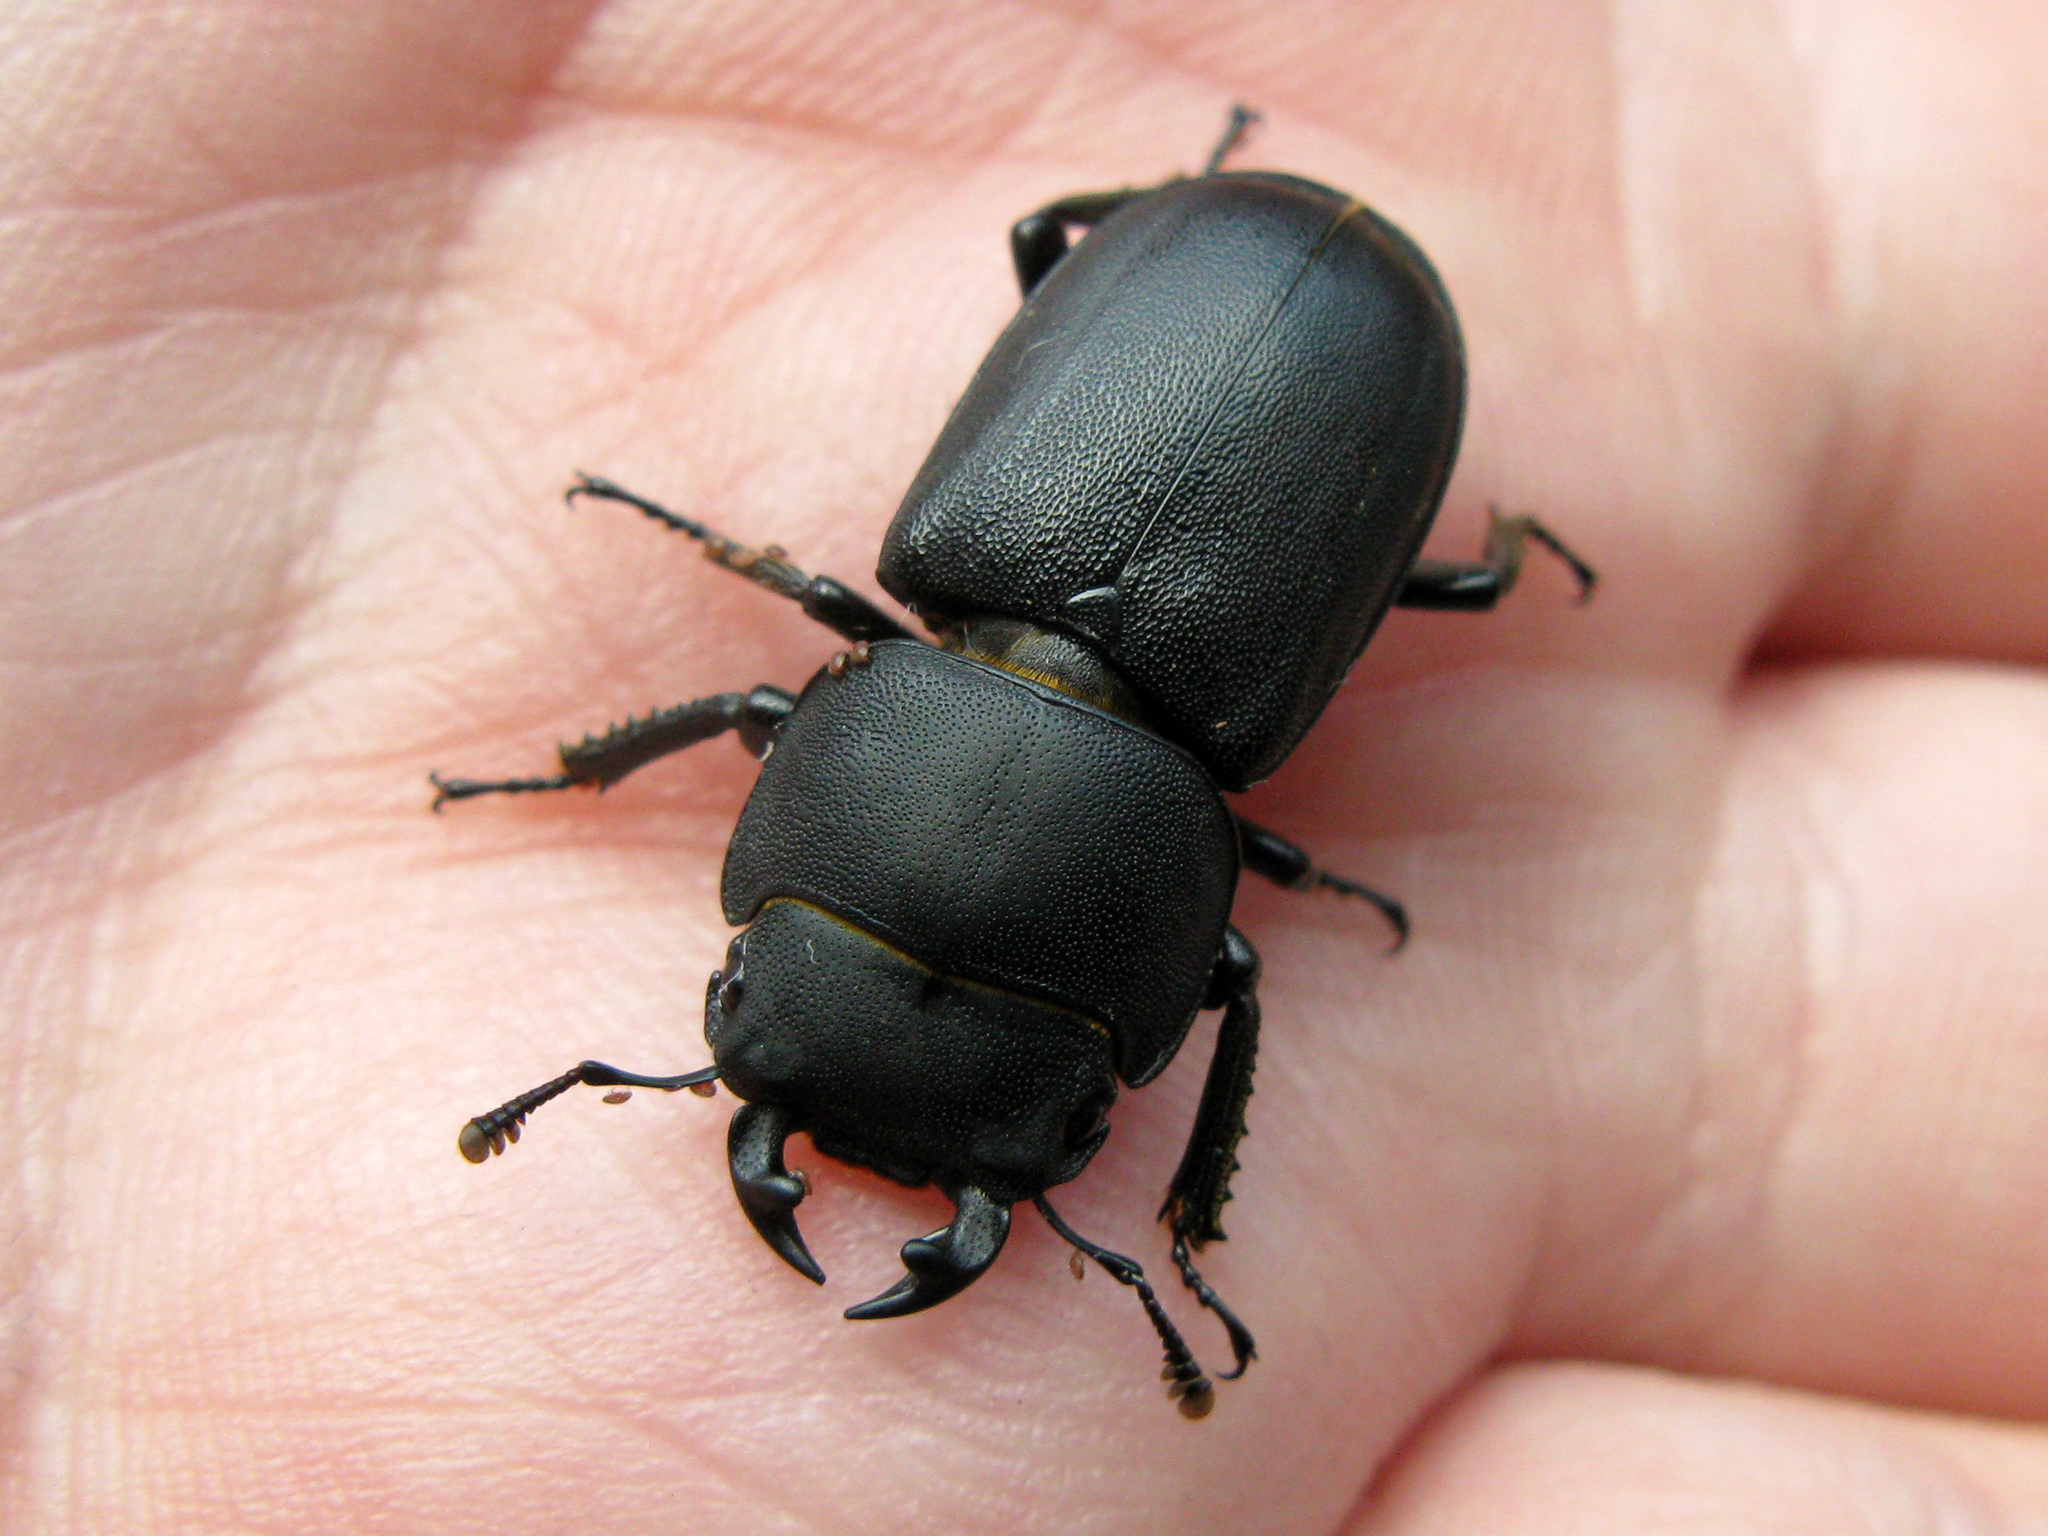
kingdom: Animalia
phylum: Arthropoda
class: Insecta
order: Coleoptera
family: Lucanidae
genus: Dorcus
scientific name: Dorcus parallelipipedus
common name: Lesser stag beetle
